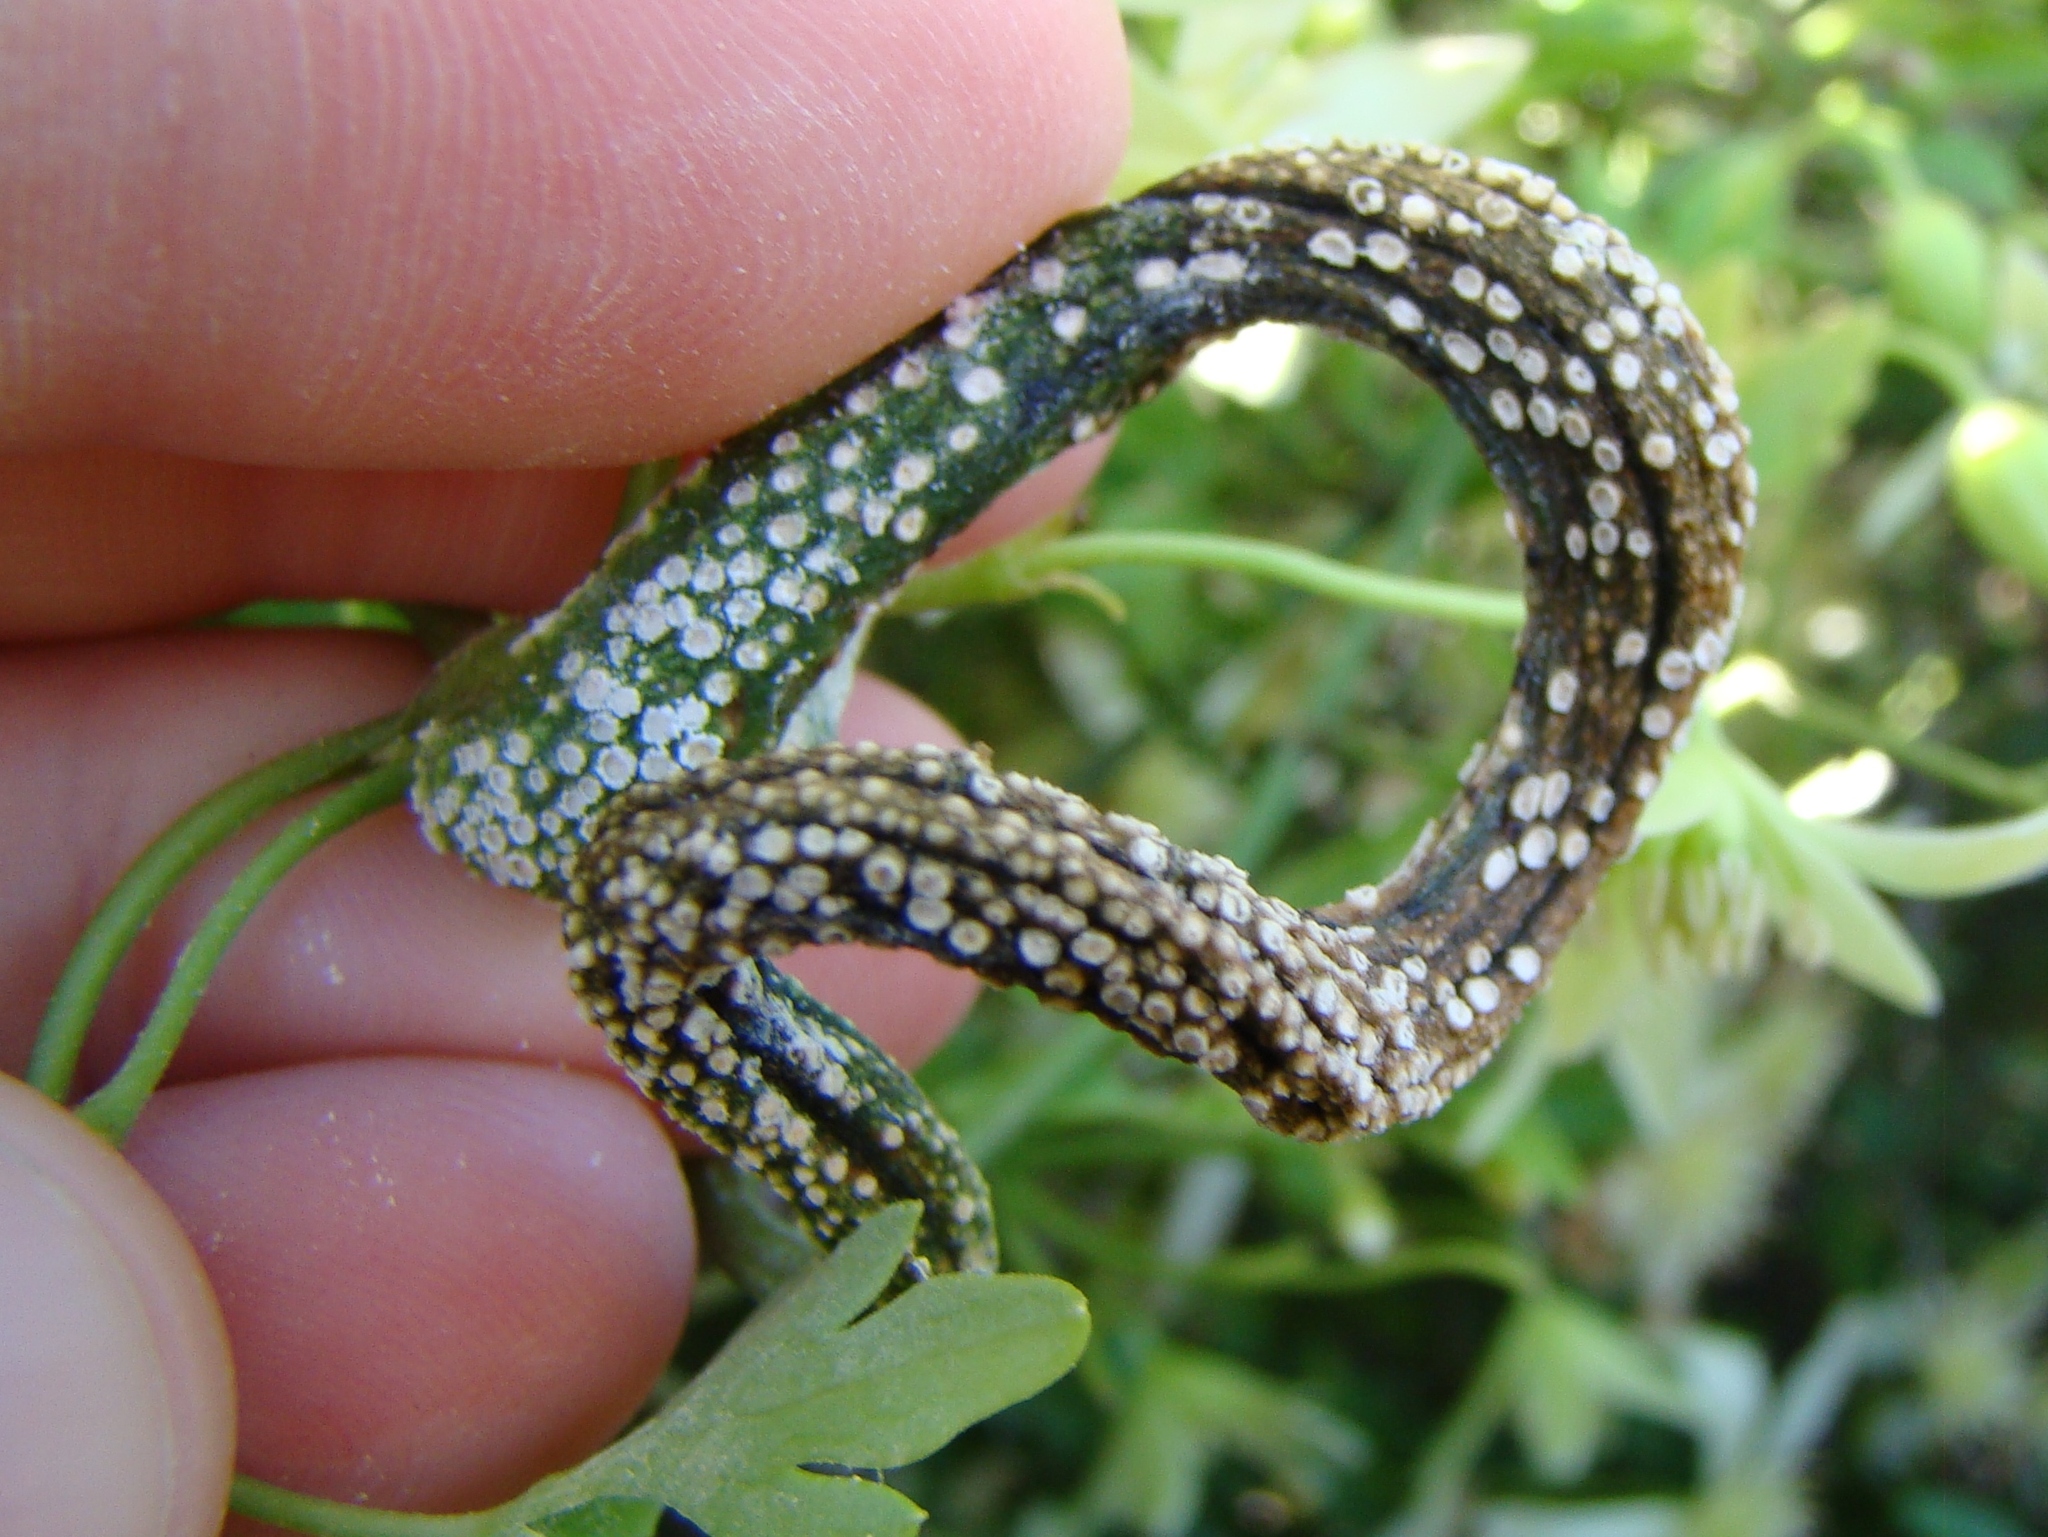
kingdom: Fungi
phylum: Basidiomycota
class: Pucciniomycetes
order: Pucciniales
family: Pucciniaceae
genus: Puccinia
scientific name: Puccinia otagensis
